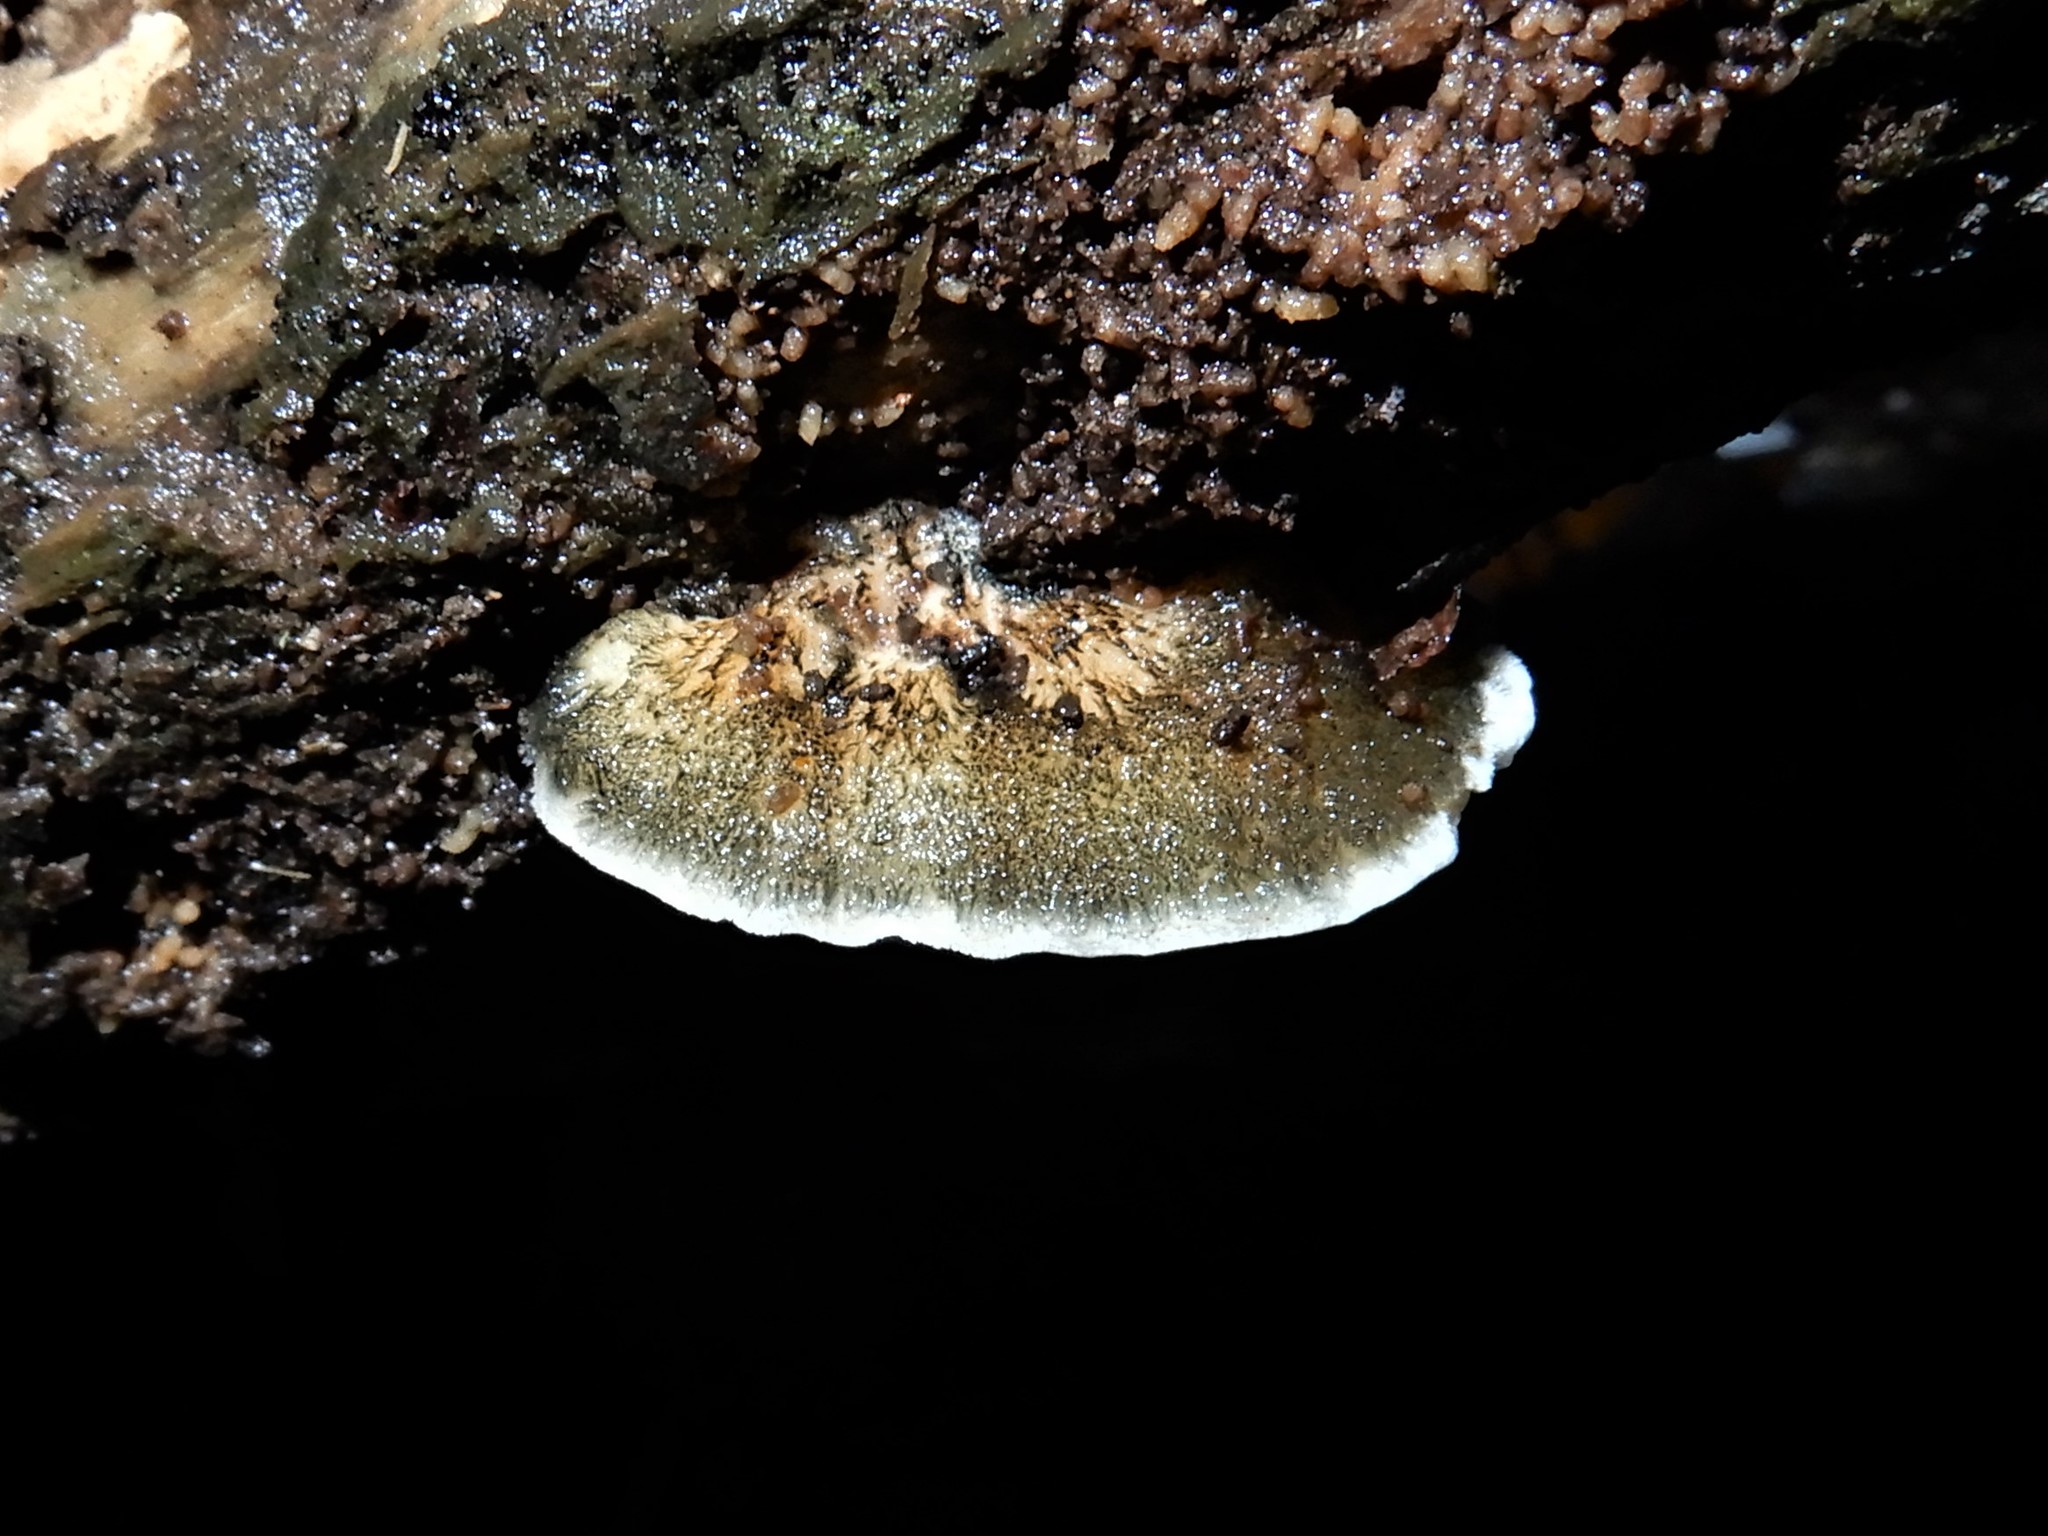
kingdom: Fungi
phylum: Basidiomycota
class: Agaricomycetes
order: Polyporales
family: Polyporaceae
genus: Cyanosporus
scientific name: Cyanosporus caesius
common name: Blue cheese polypore
